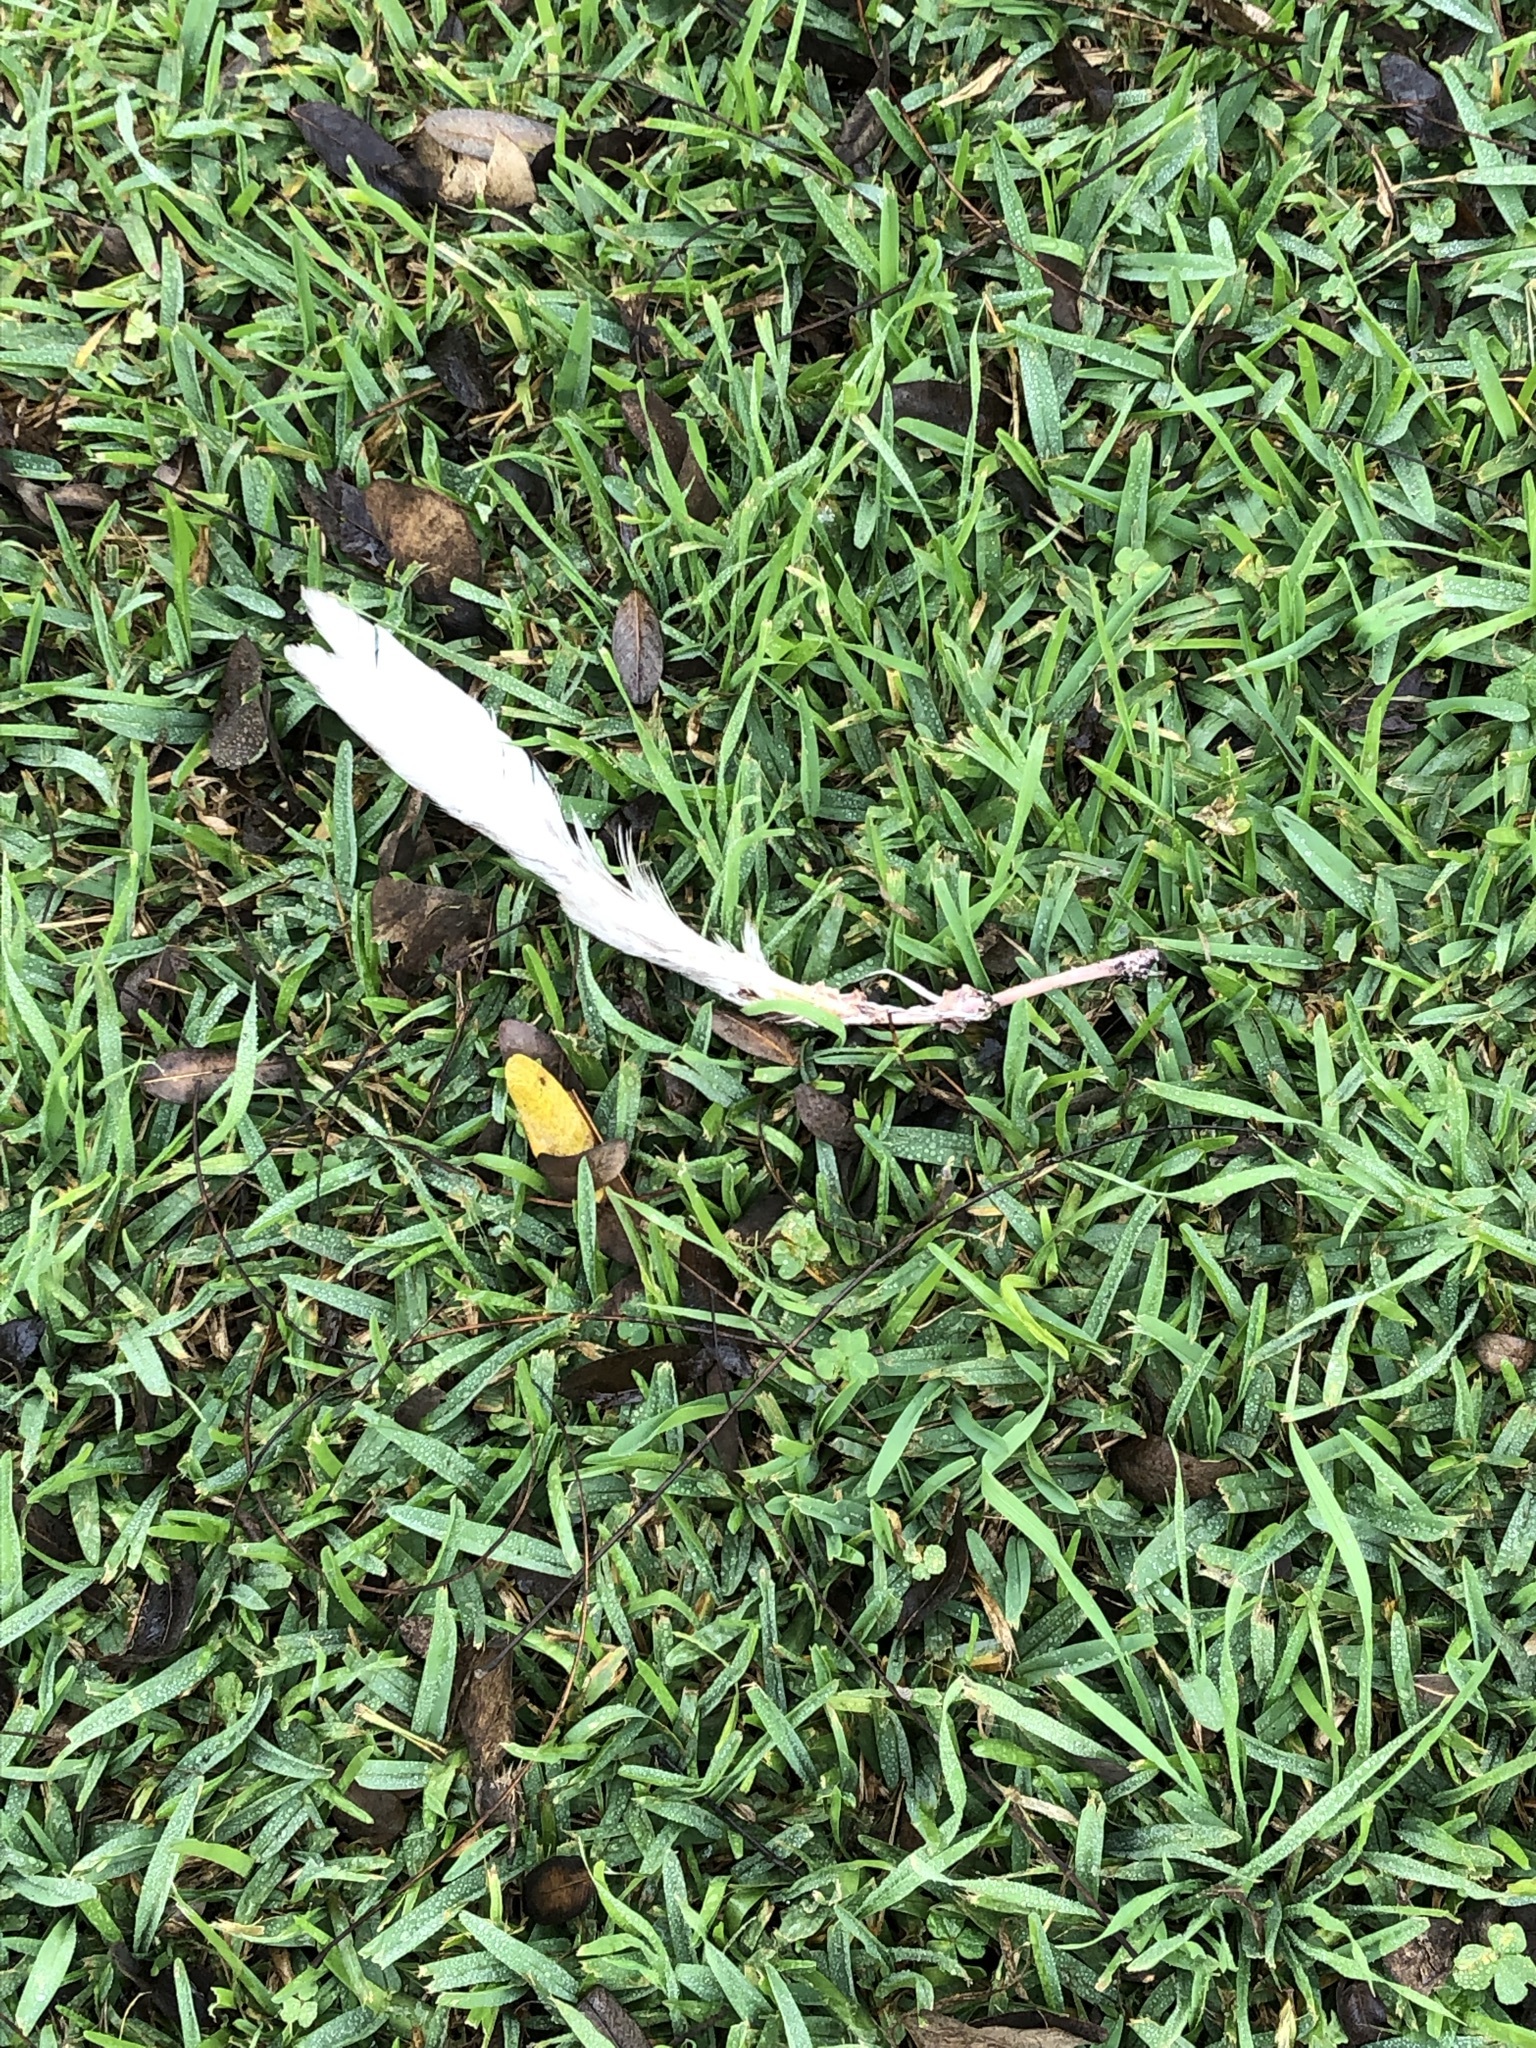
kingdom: Animalia
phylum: Chordata
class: Aves
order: Columbiformes
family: Columbidae
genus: Columba
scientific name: Columba livia
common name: Rock pigeon
